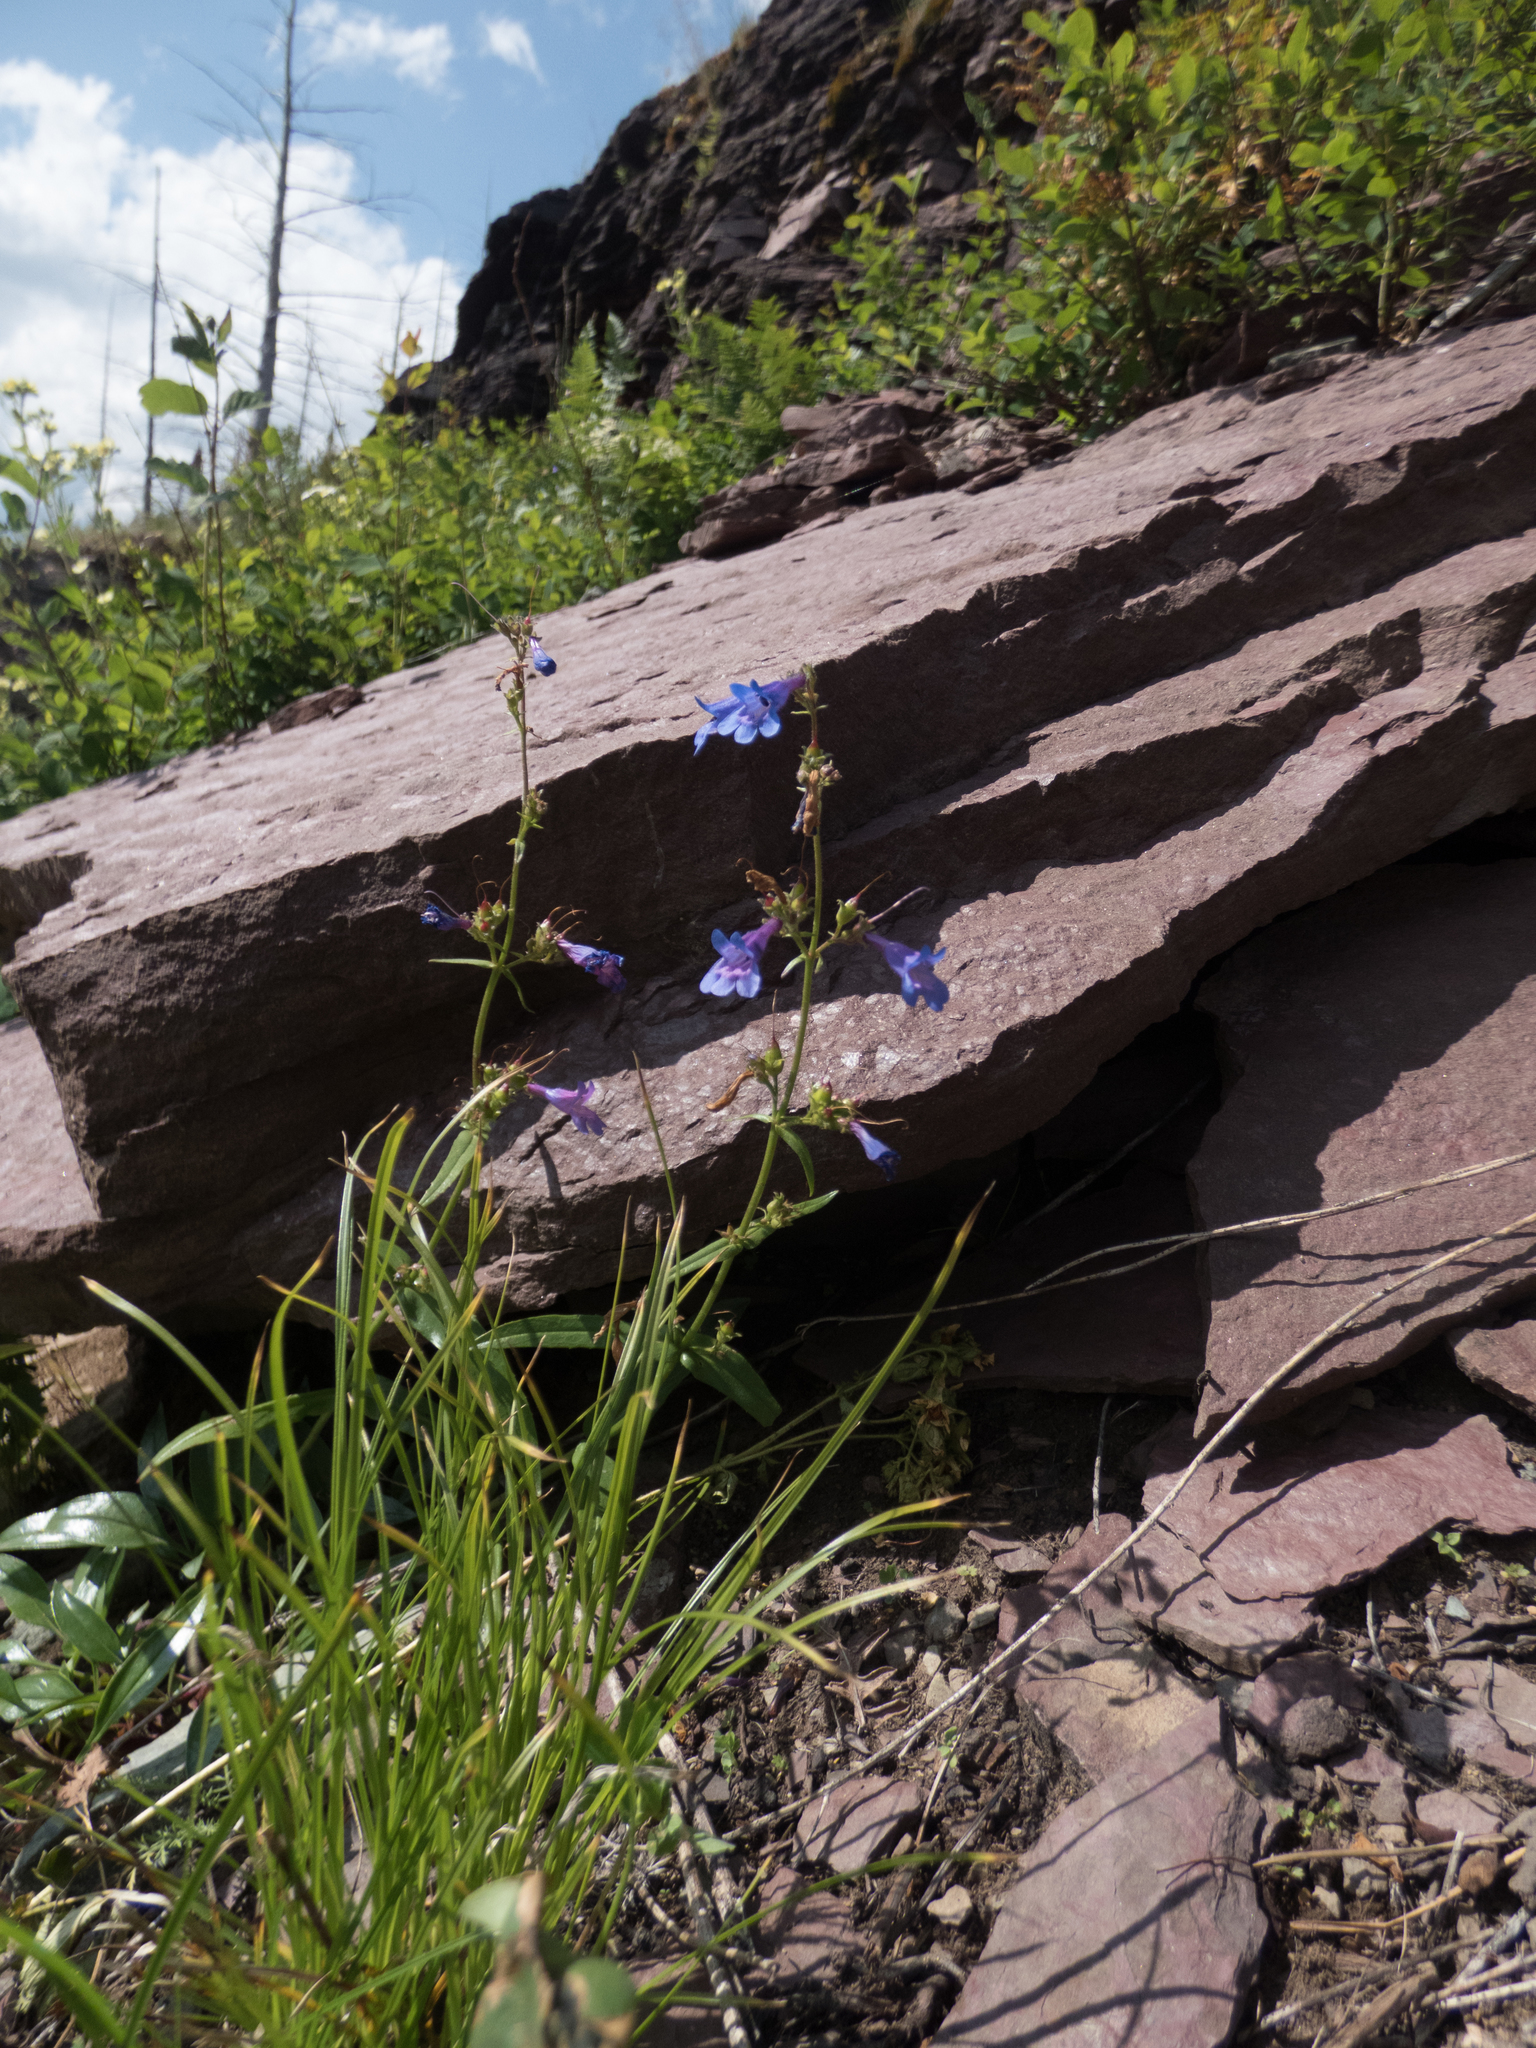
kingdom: Plantae
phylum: Tracheophyta
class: Magnoliopsida
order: Lamiales
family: Plantaginaceae
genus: Penstemon
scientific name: Penstemon albertinus
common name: Alberta beardtongue
